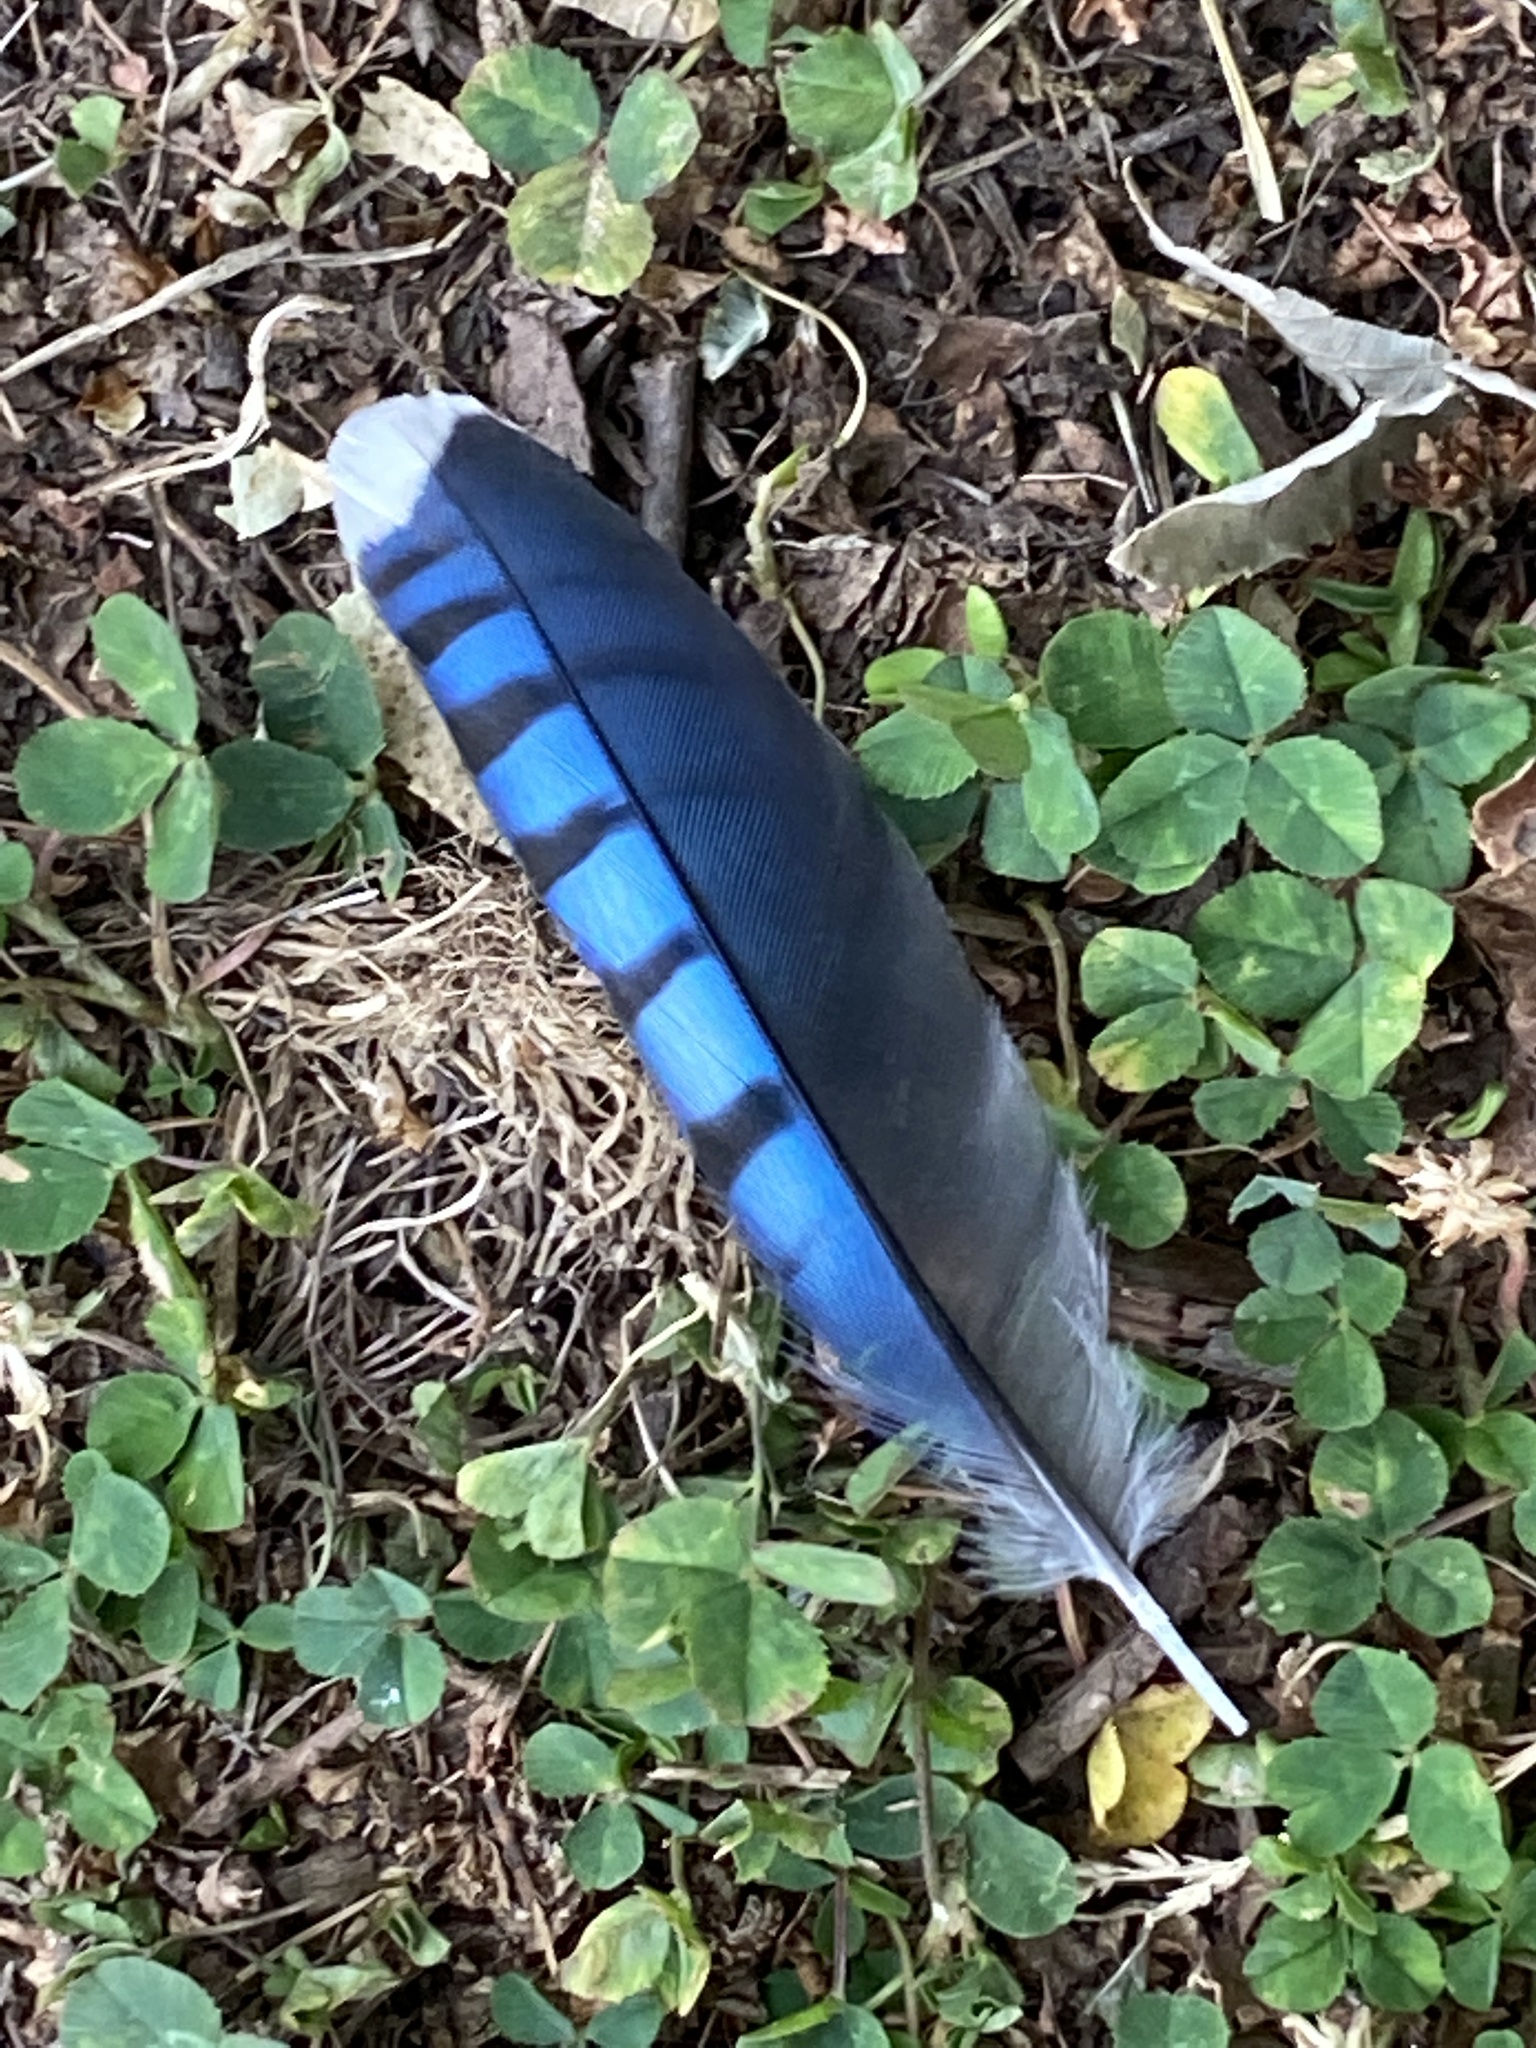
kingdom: Animalia
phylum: Chordata
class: Aves
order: Passeriformes
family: Corvidae
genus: Cyanocitta
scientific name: Cyanocitta cristata
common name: Blue jay
